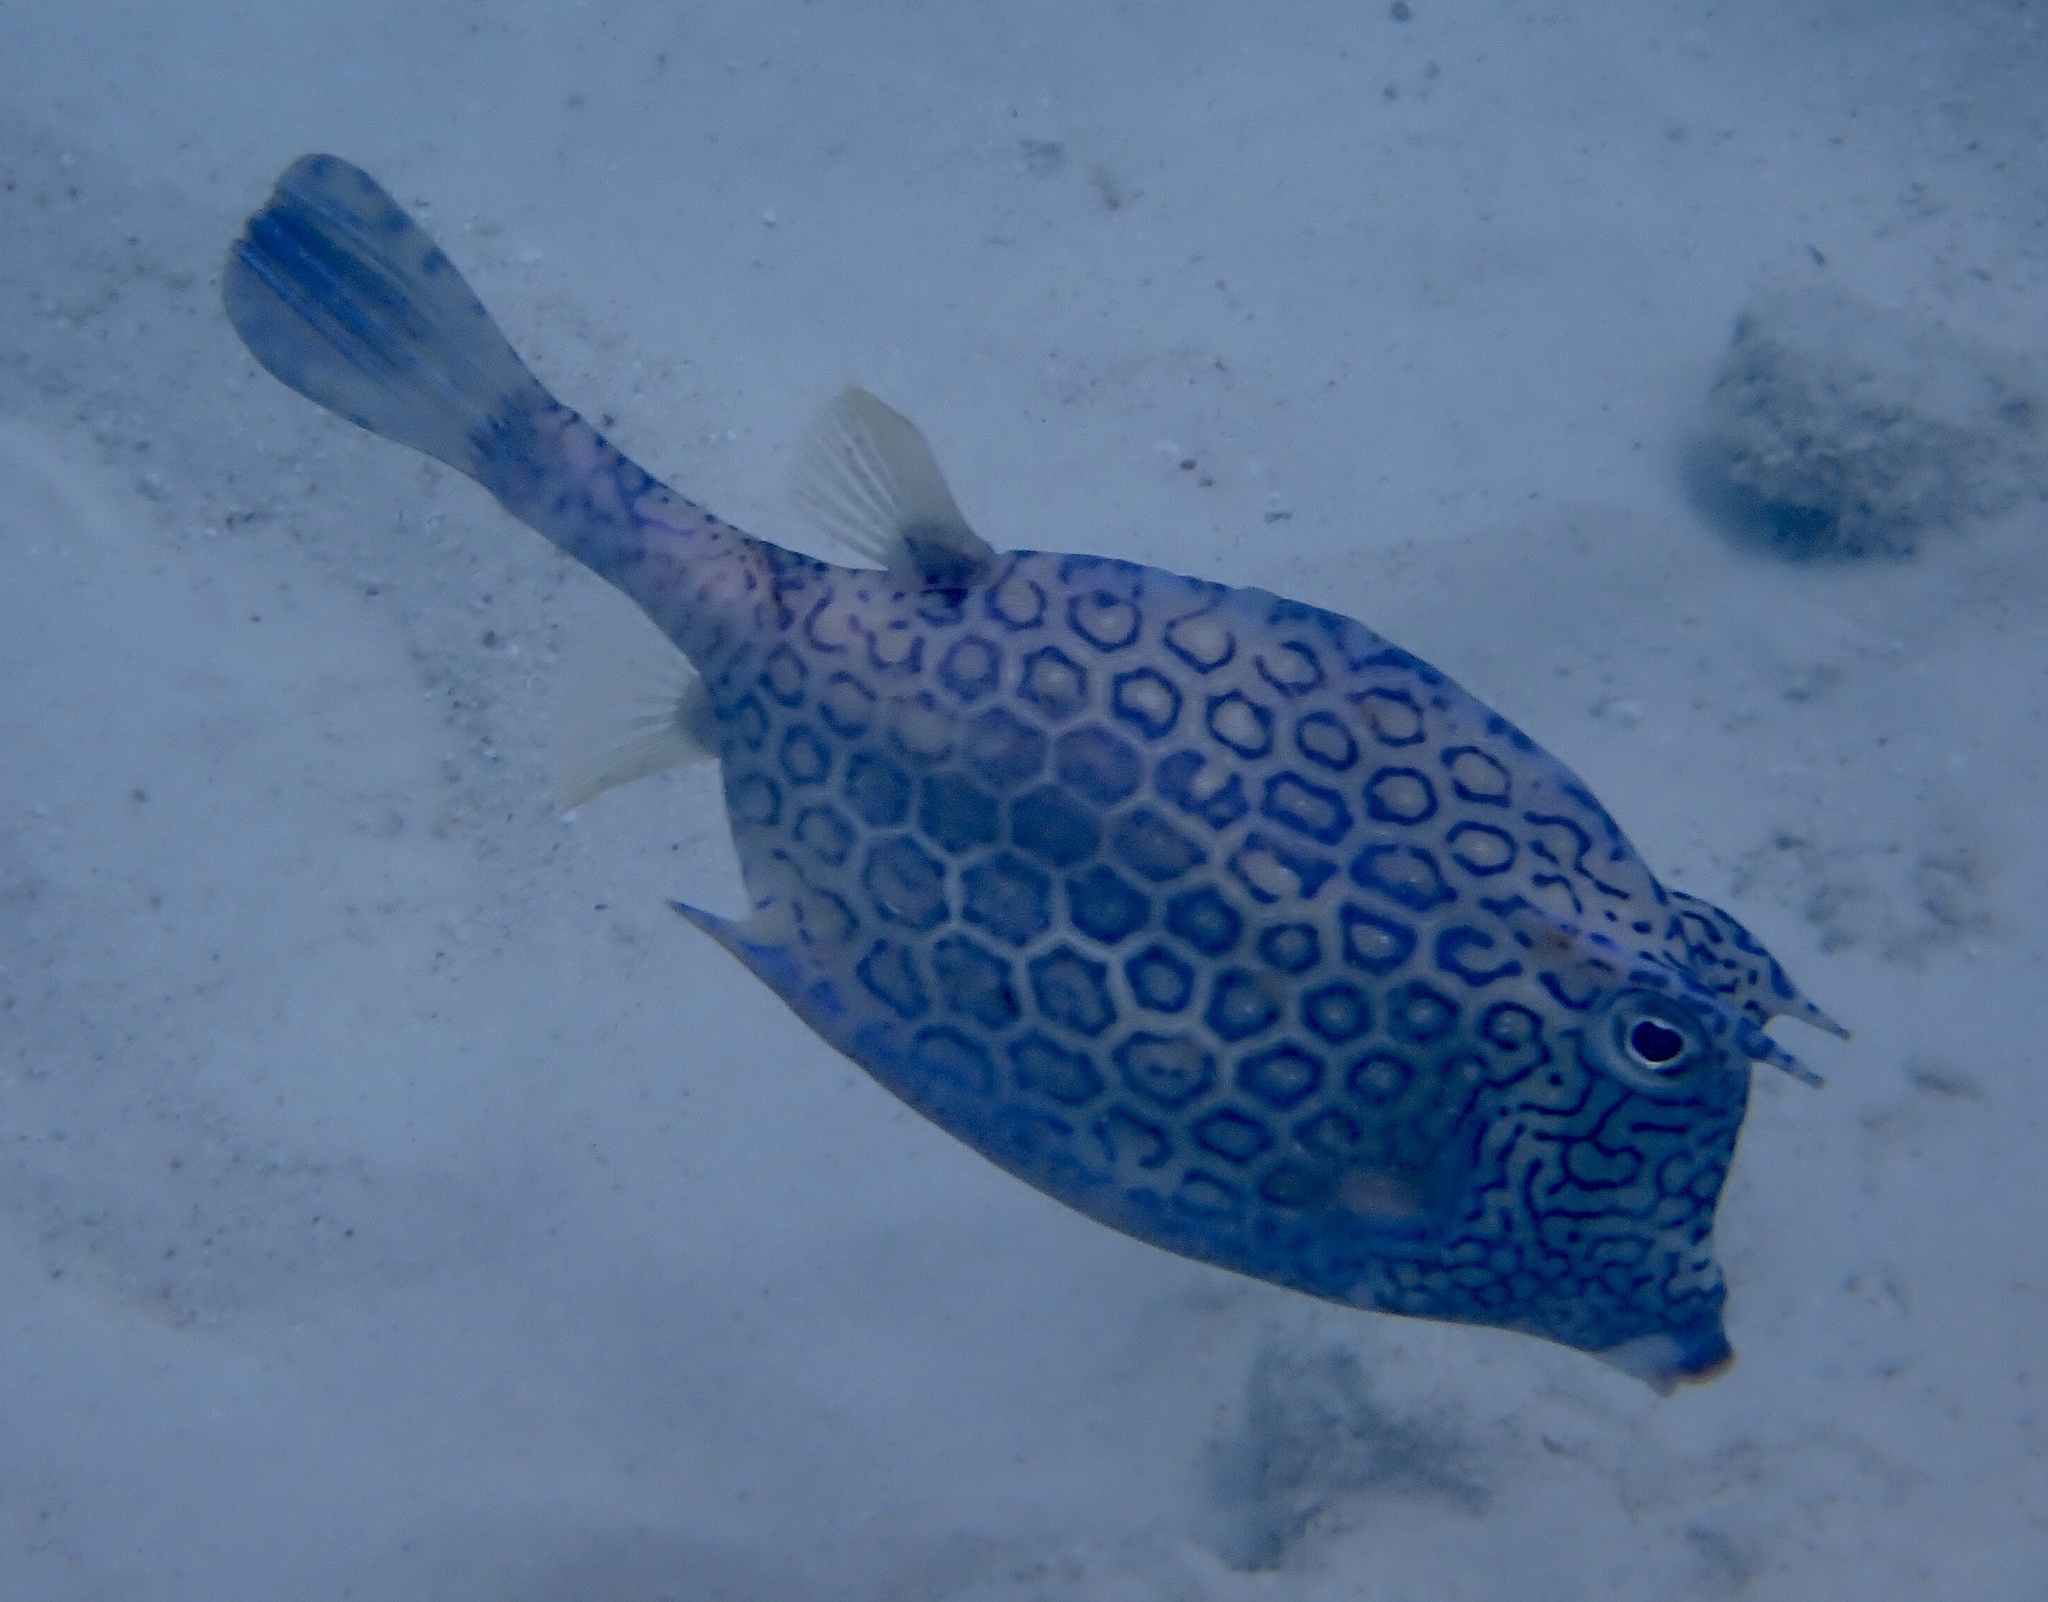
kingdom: Animalia
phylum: Chordata
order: Tetraodontiformes
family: Ostraciidae
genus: Acanthostracion
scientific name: Acanthostracion polygonius
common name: Honeycomb cowfish
